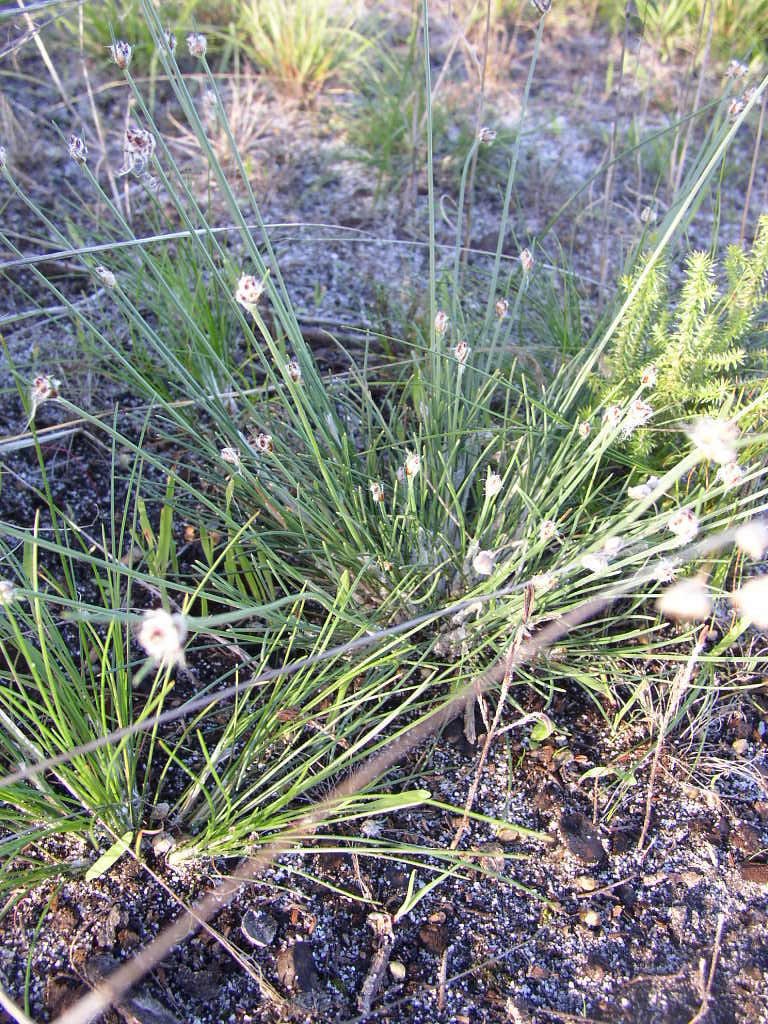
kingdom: Plantae
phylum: Tracheophyta
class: Liliopsida
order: Poales
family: Cyperaceae
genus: Ficinia
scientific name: Ficinia paradoxa
